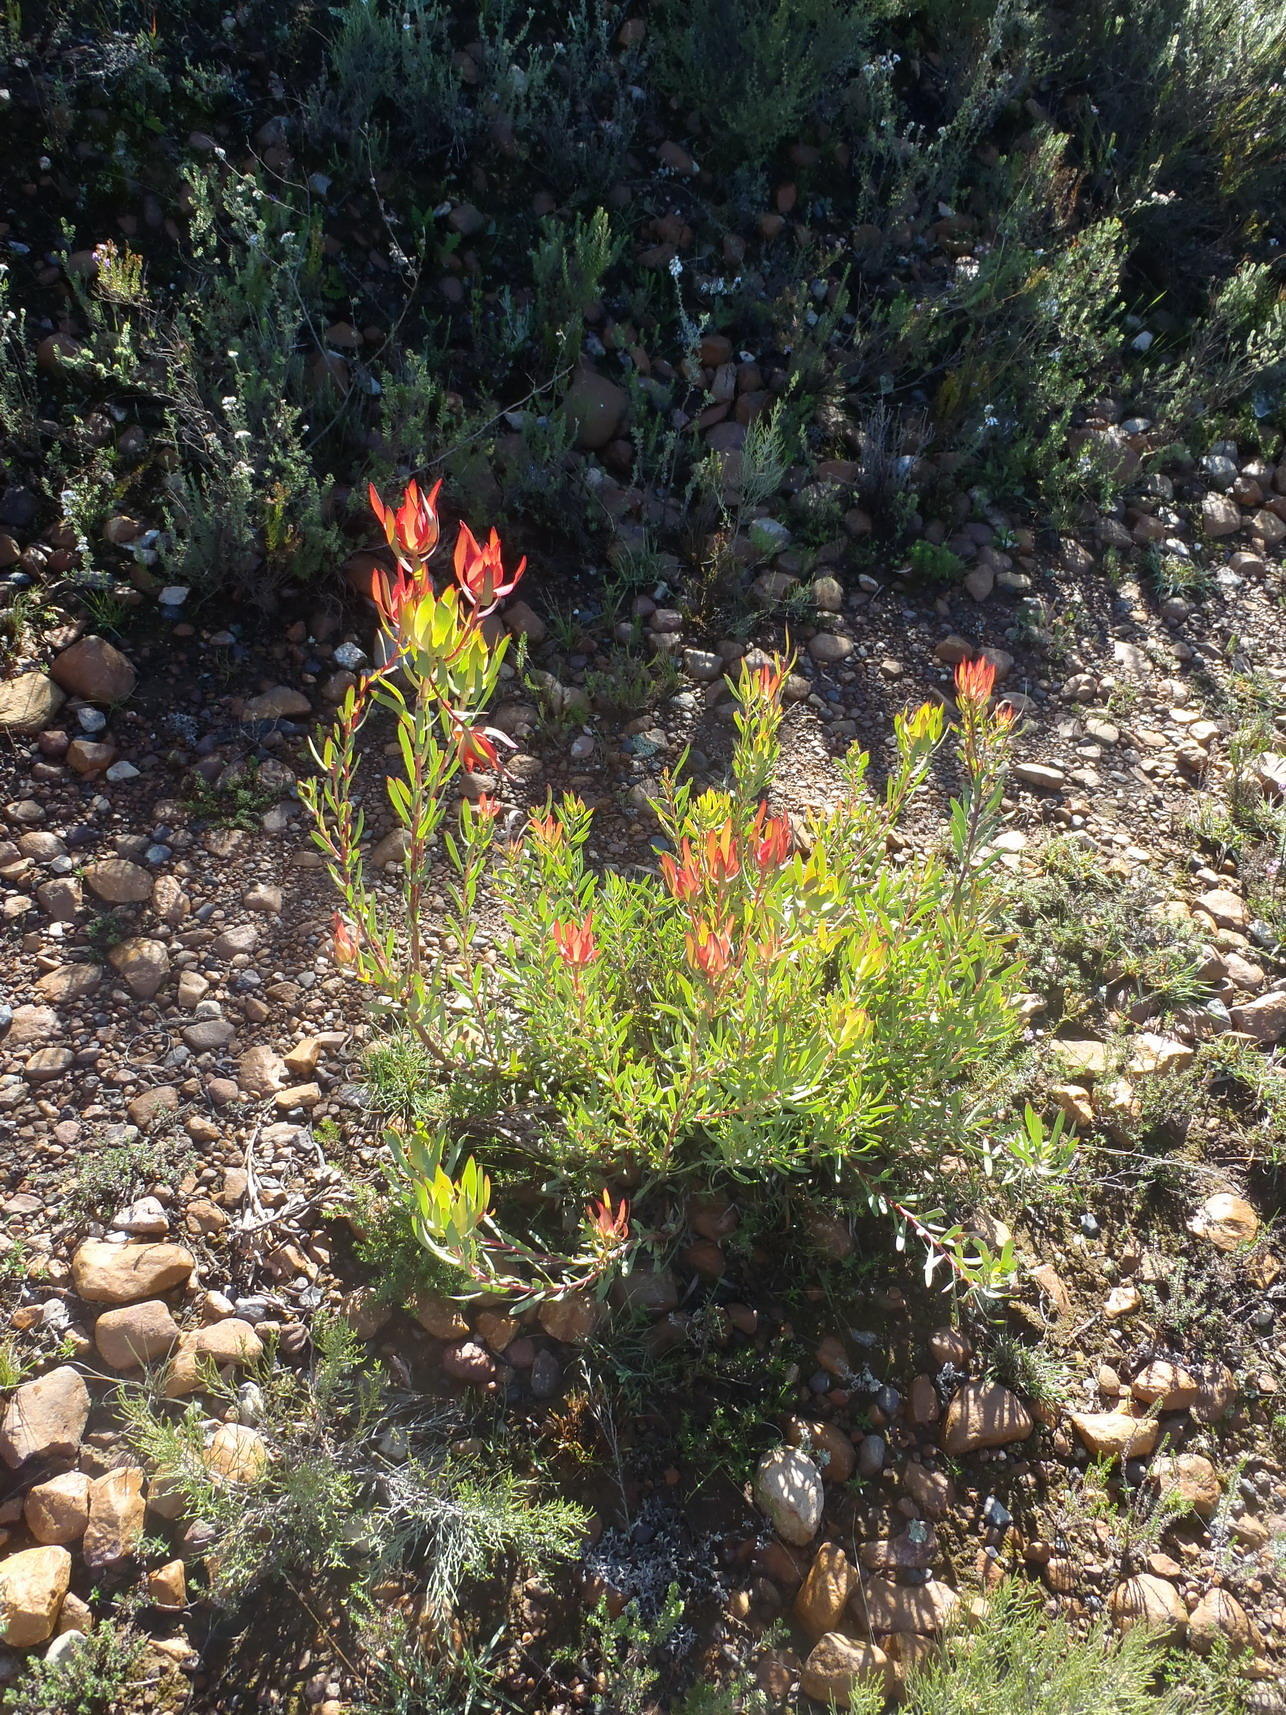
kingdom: Plantae
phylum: Tracheophyta
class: Magnoliopsida
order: Proteales
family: Proteaceae
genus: Leucadendron
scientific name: Leucadendron salignum
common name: Common sunshine conebush
